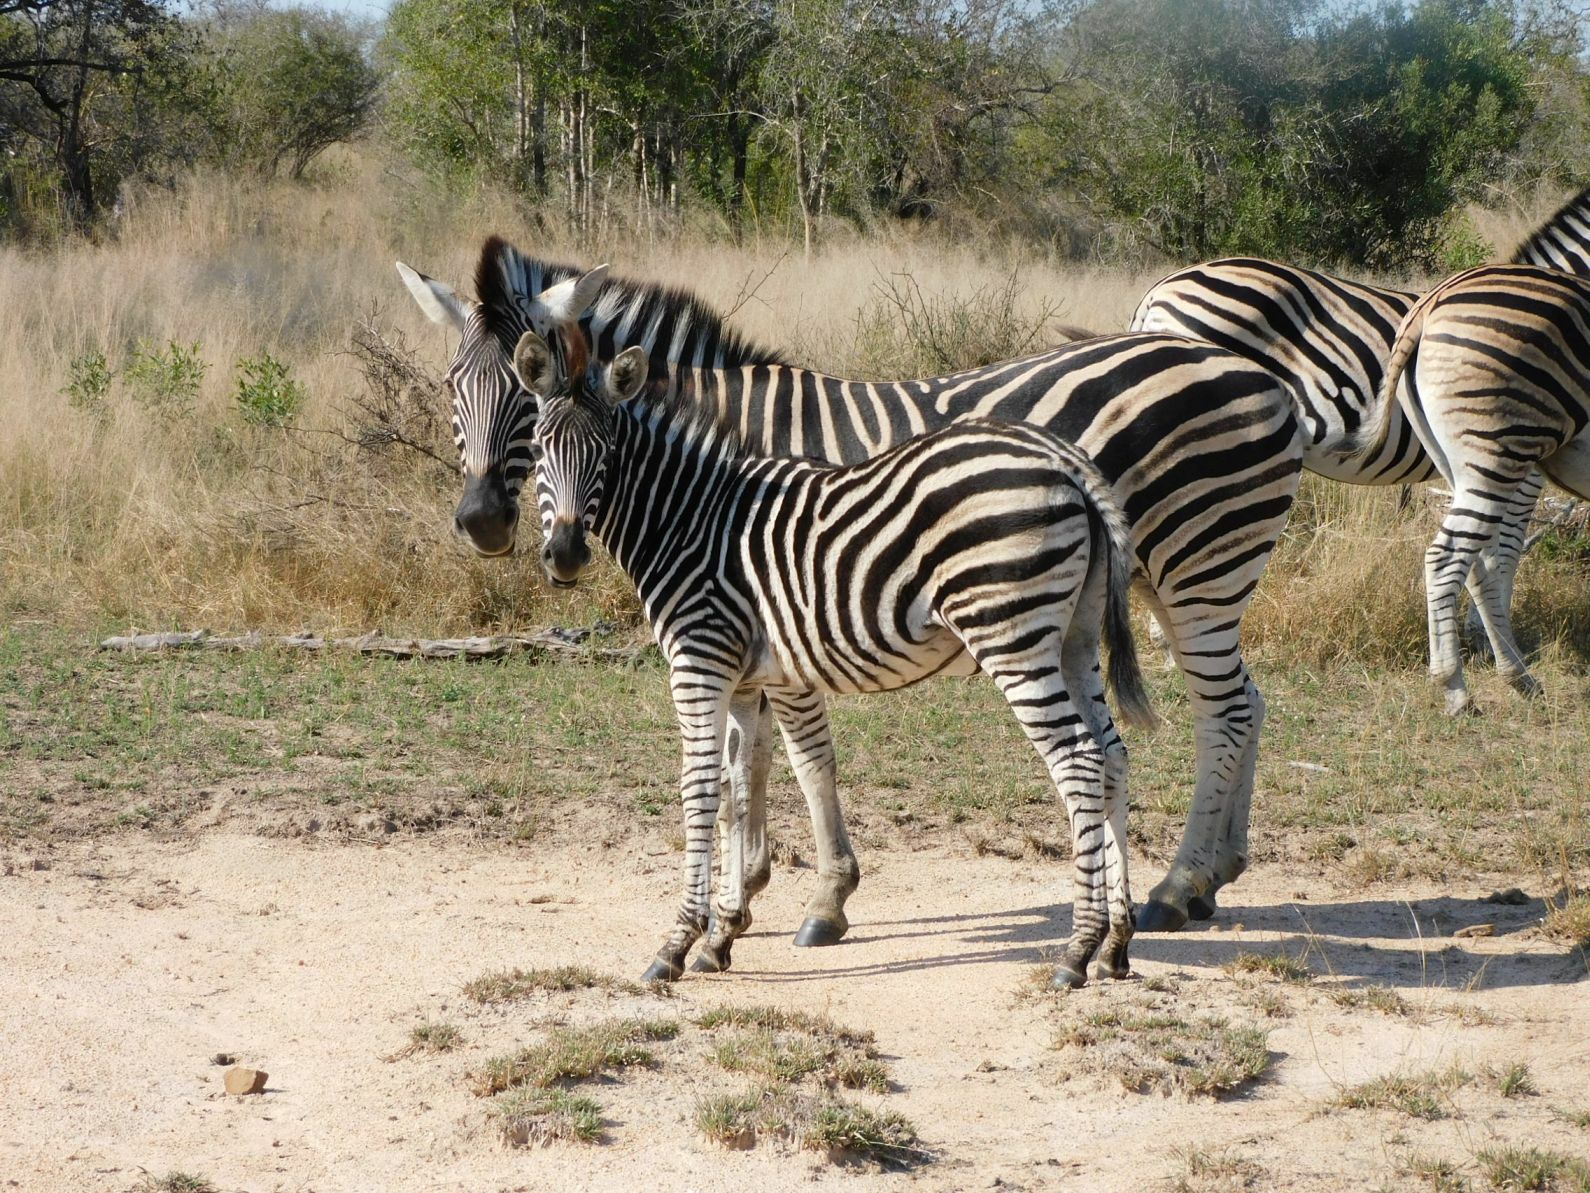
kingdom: Animalia
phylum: Chordata
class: Mammalia
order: Perissodactyla
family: Equidae
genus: Equus
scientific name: Equus quagga
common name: Plains zebra
